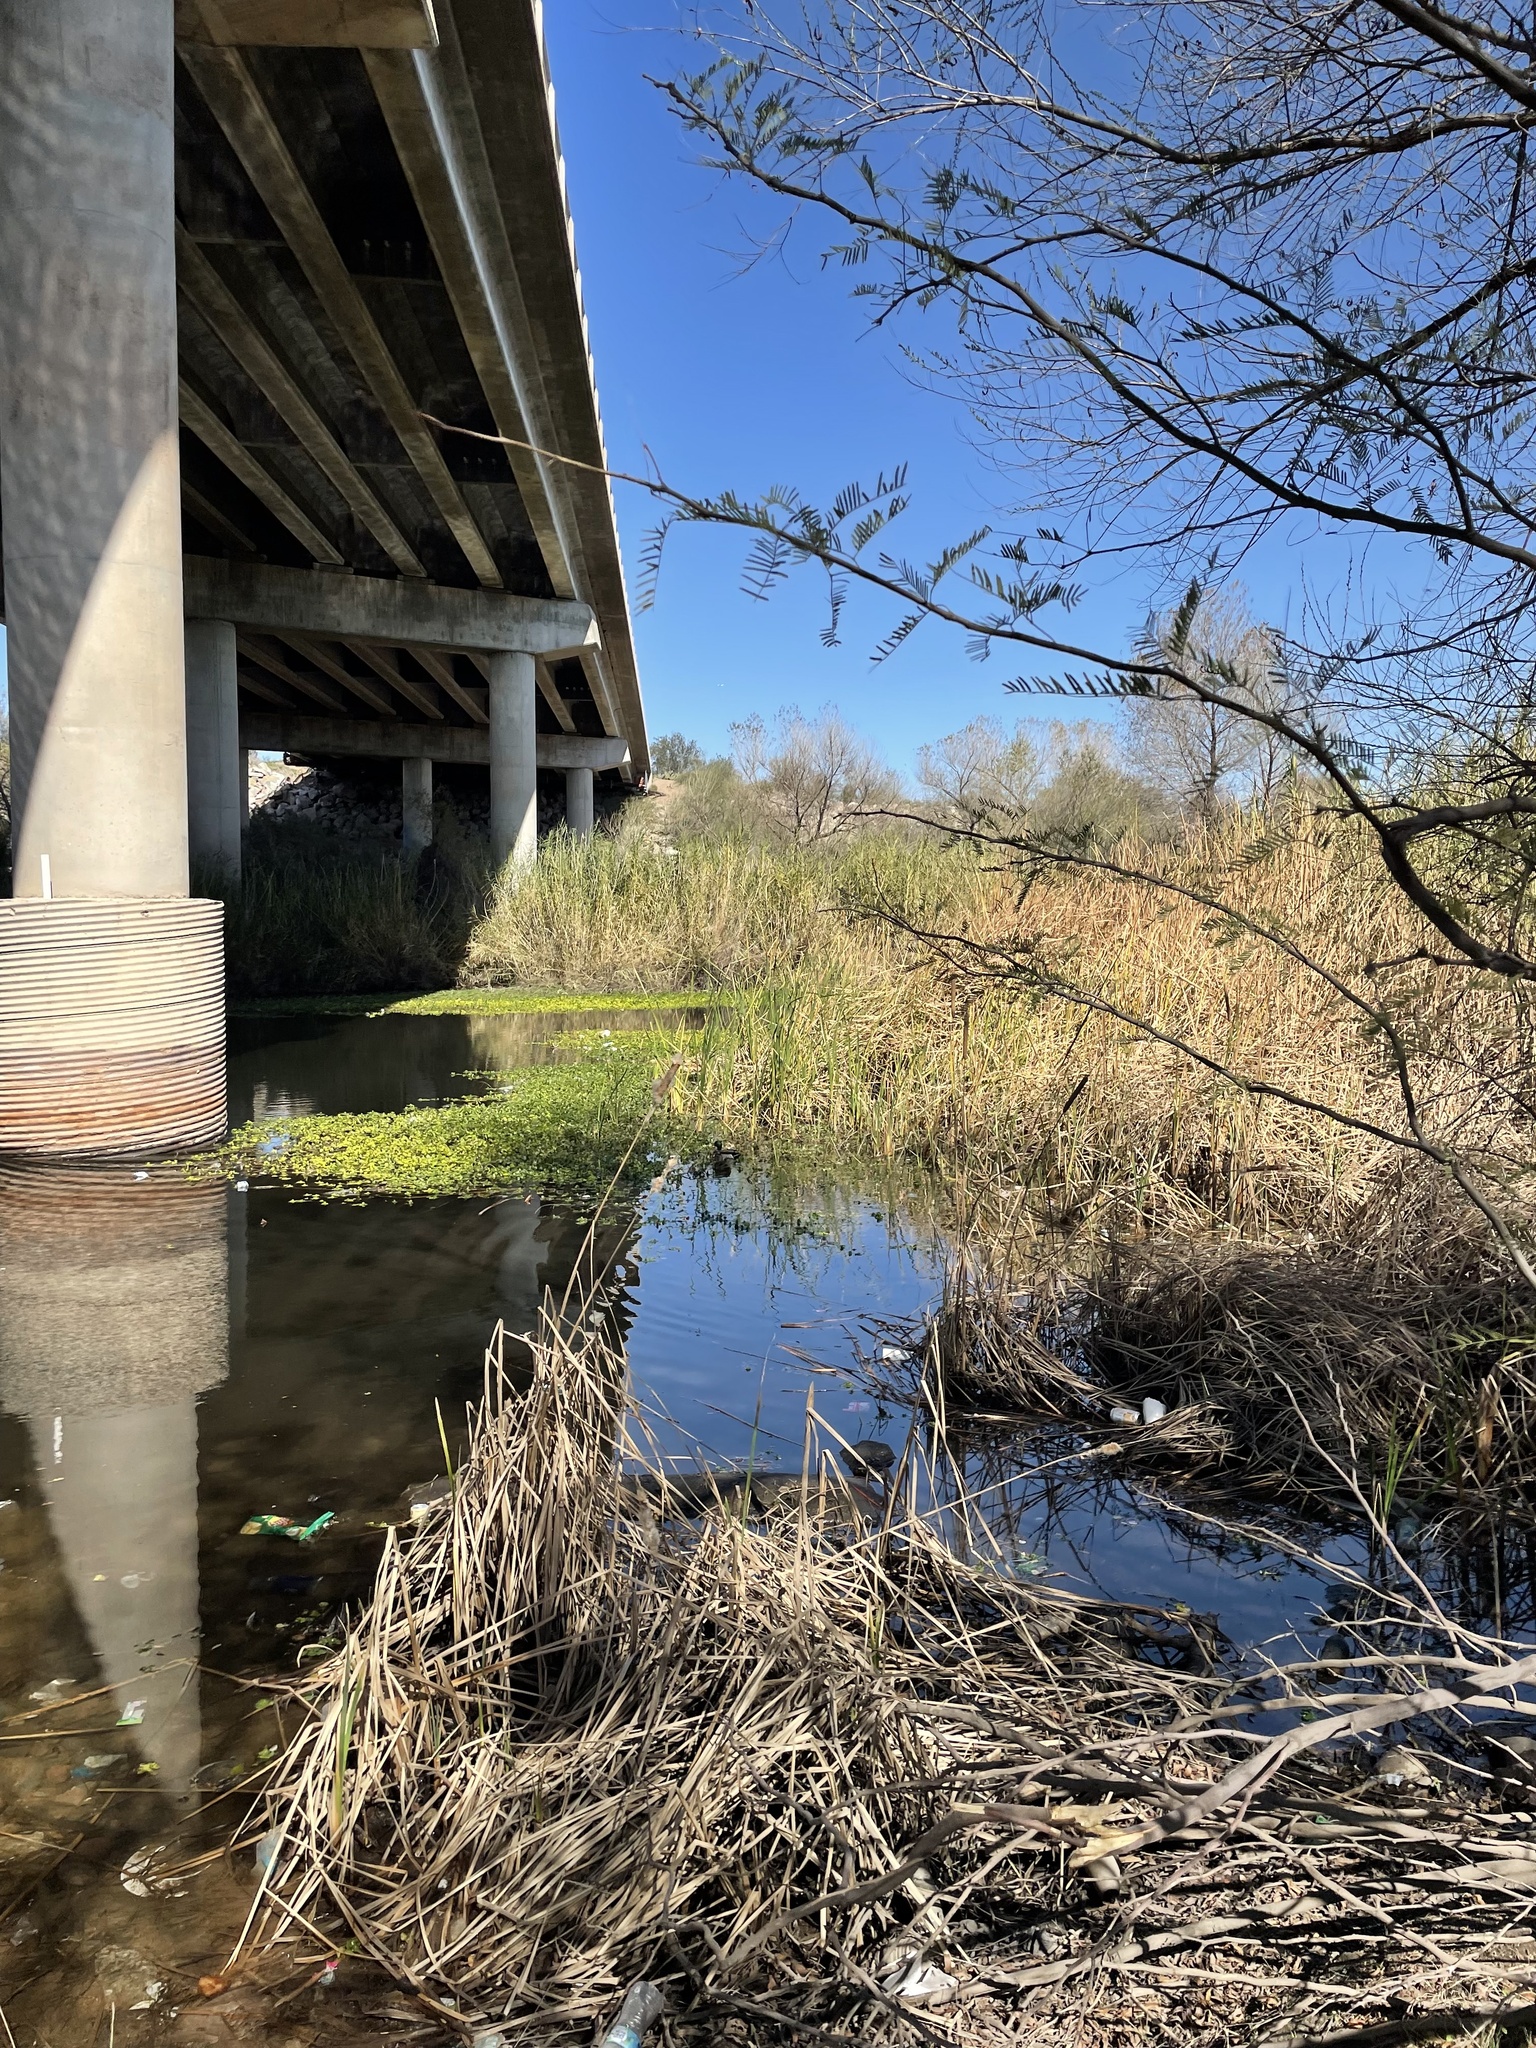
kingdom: Animalia
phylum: Chordata
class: Aves
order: Anseriformes
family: Anatidae
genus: Anas
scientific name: Anas platyrhynchos
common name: Mallard
